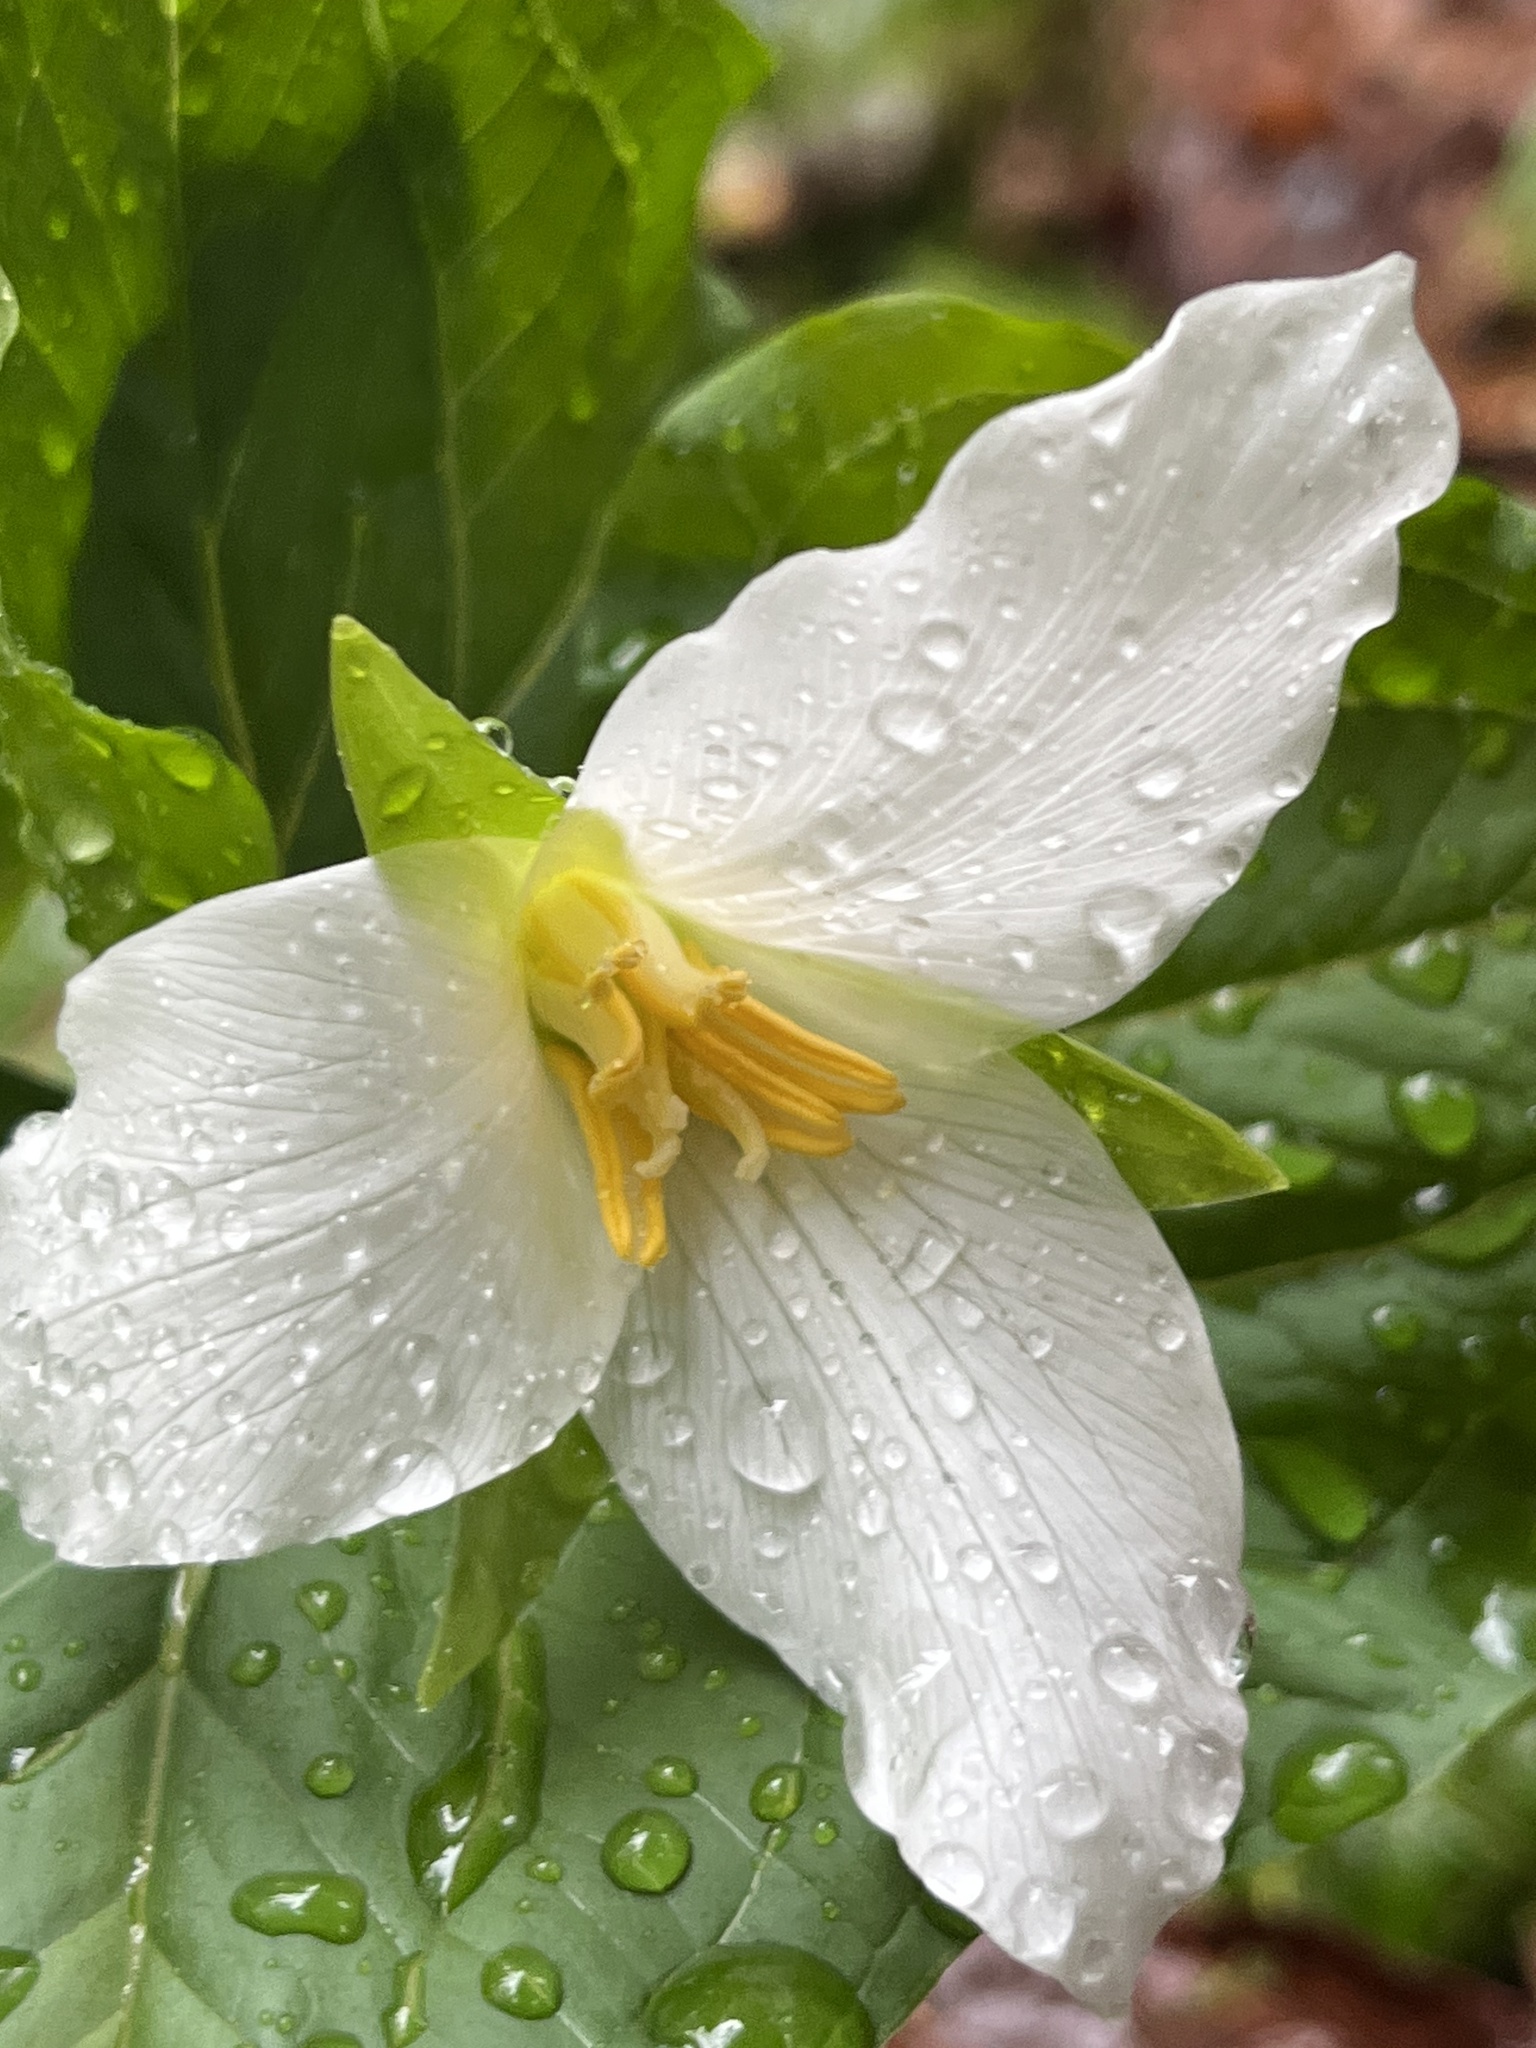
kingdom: Plantae
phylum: Tracheophyta
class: Liliopsida
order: Liliales
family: Melanthiaceae
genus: Trillium
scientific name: Trillium ovatum
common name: Pacific trillium
